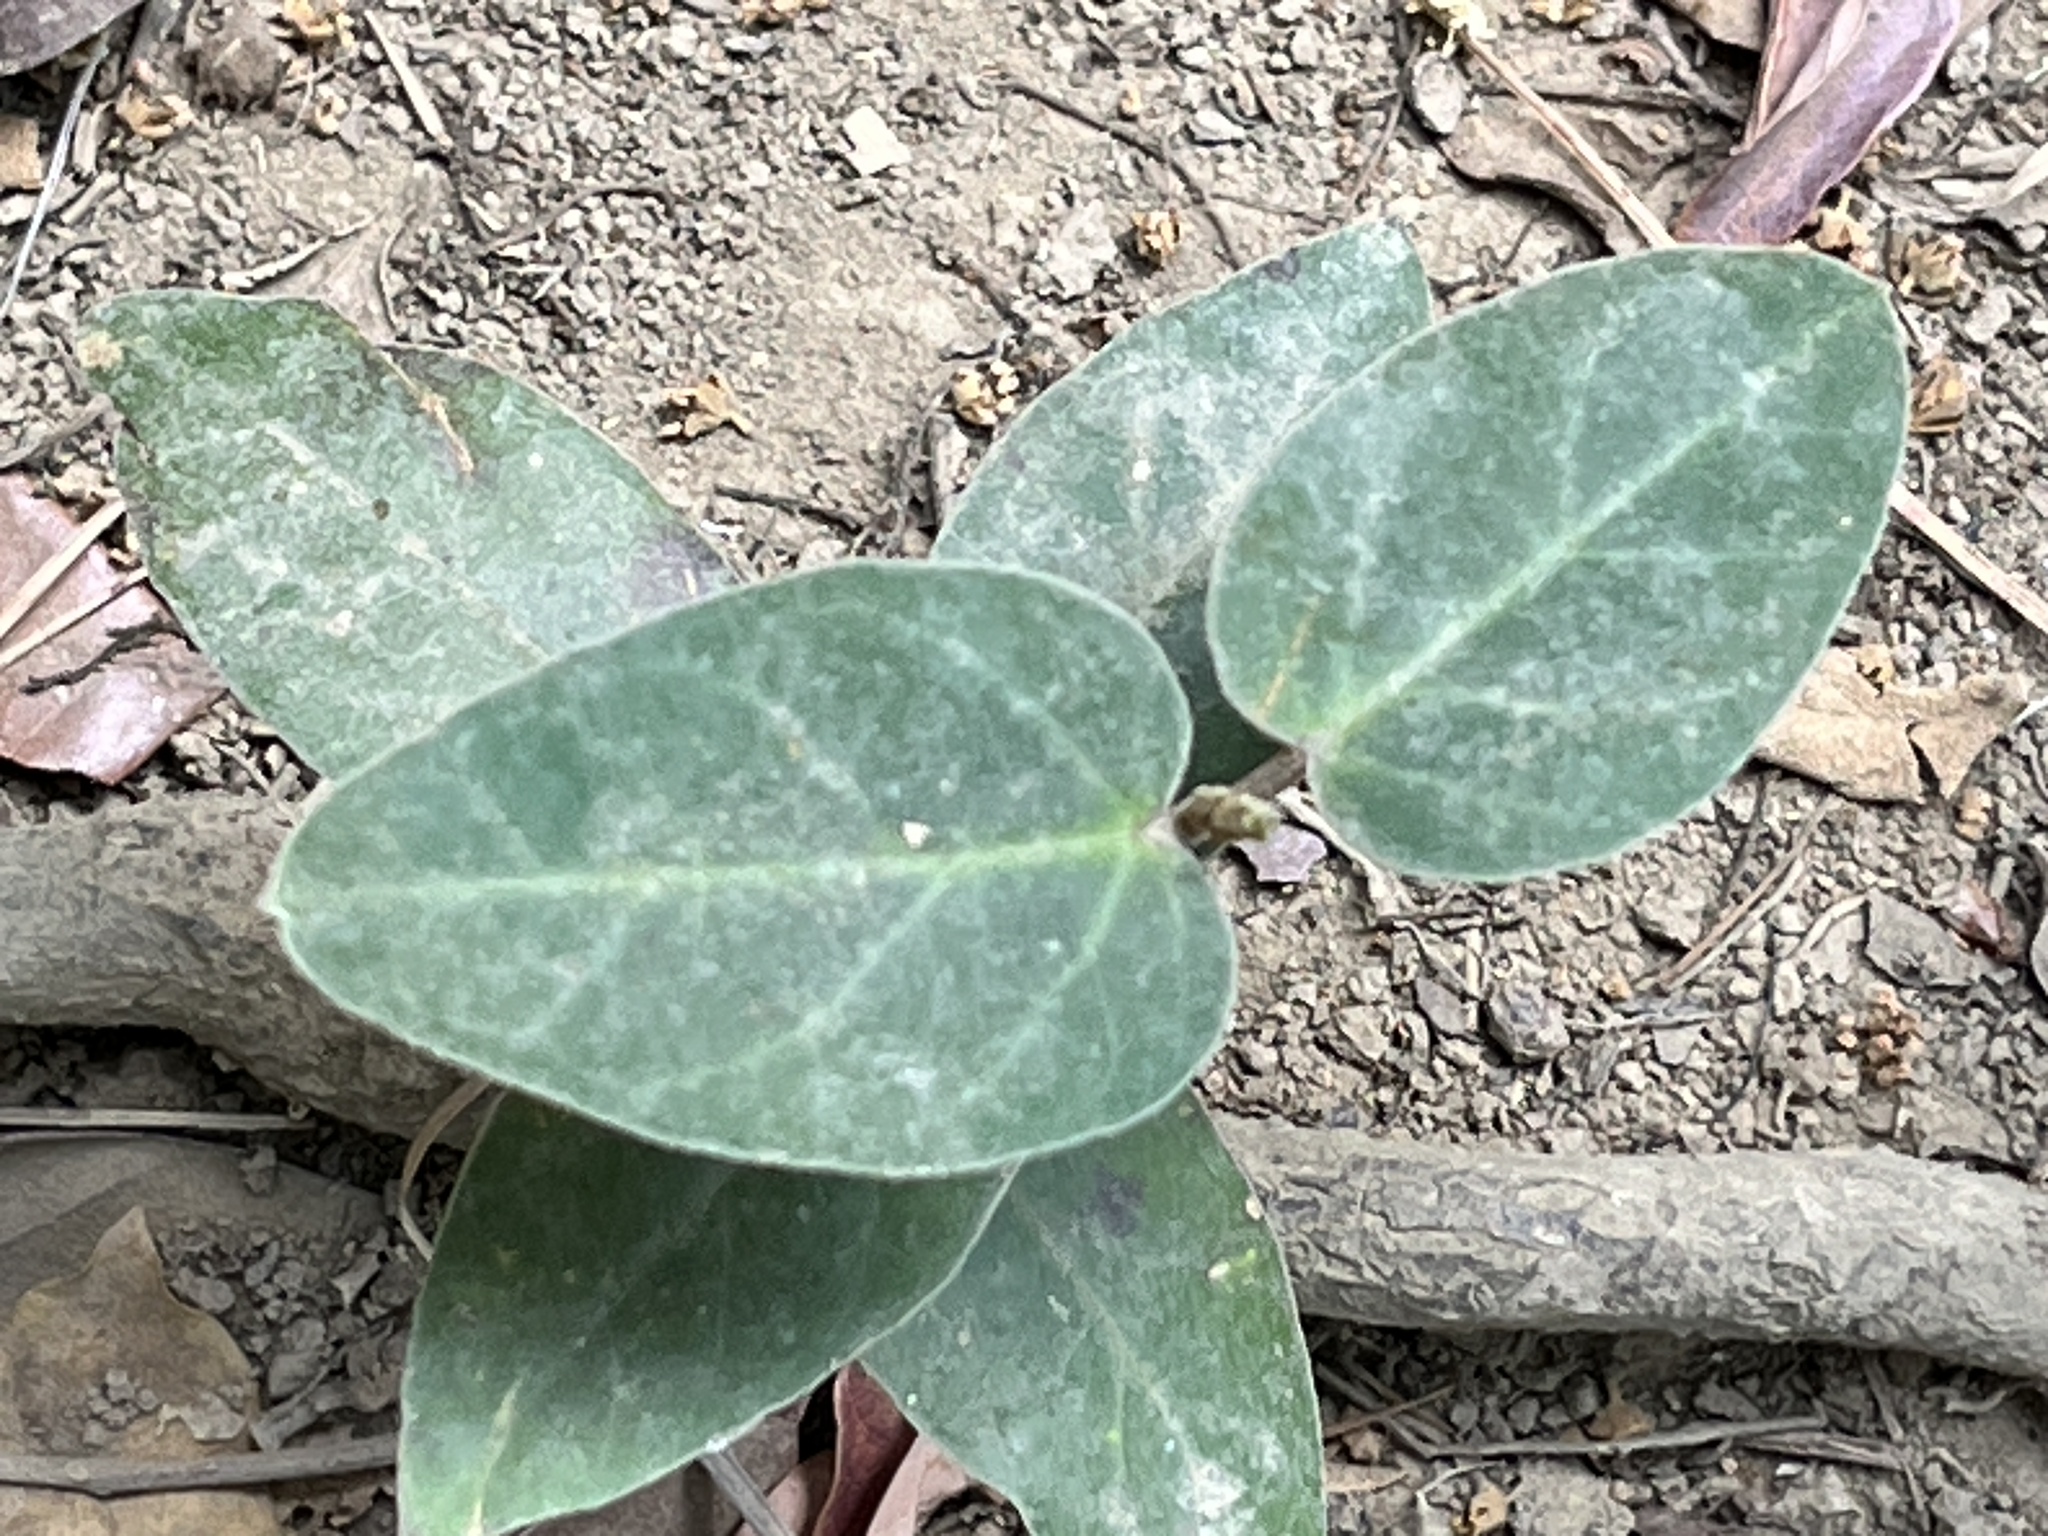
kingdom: Plantae
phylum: Tracheophyta
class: Magnoliopsida
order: Gentianales
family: Apocynaceae
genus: Vincetoxicum
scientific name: Vincetoxicum hirsutum
